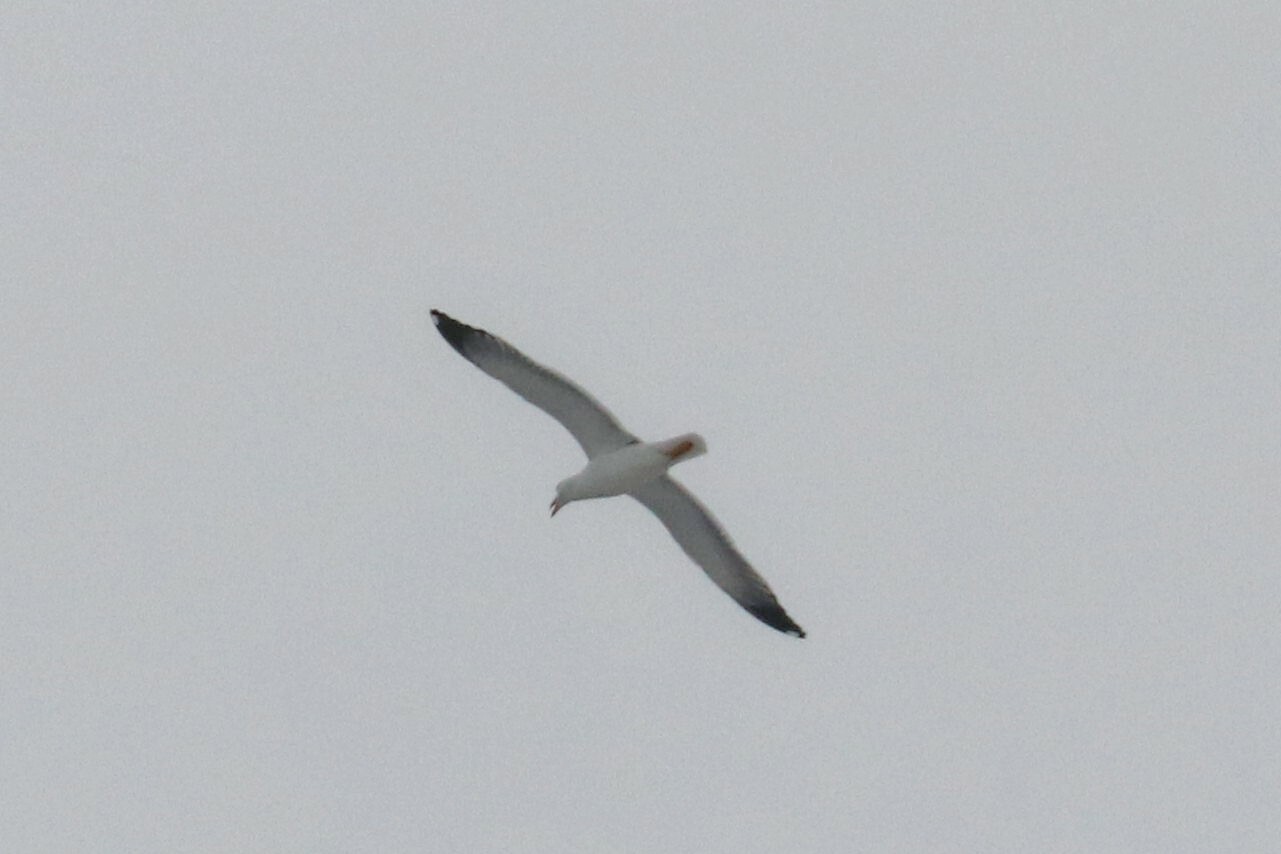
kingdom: Animalia
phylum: Chordata
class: Aves
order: Charadriiformes
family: Laridae
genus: Larus
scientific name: Larus fuscus
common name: Lesser black-backed gull
